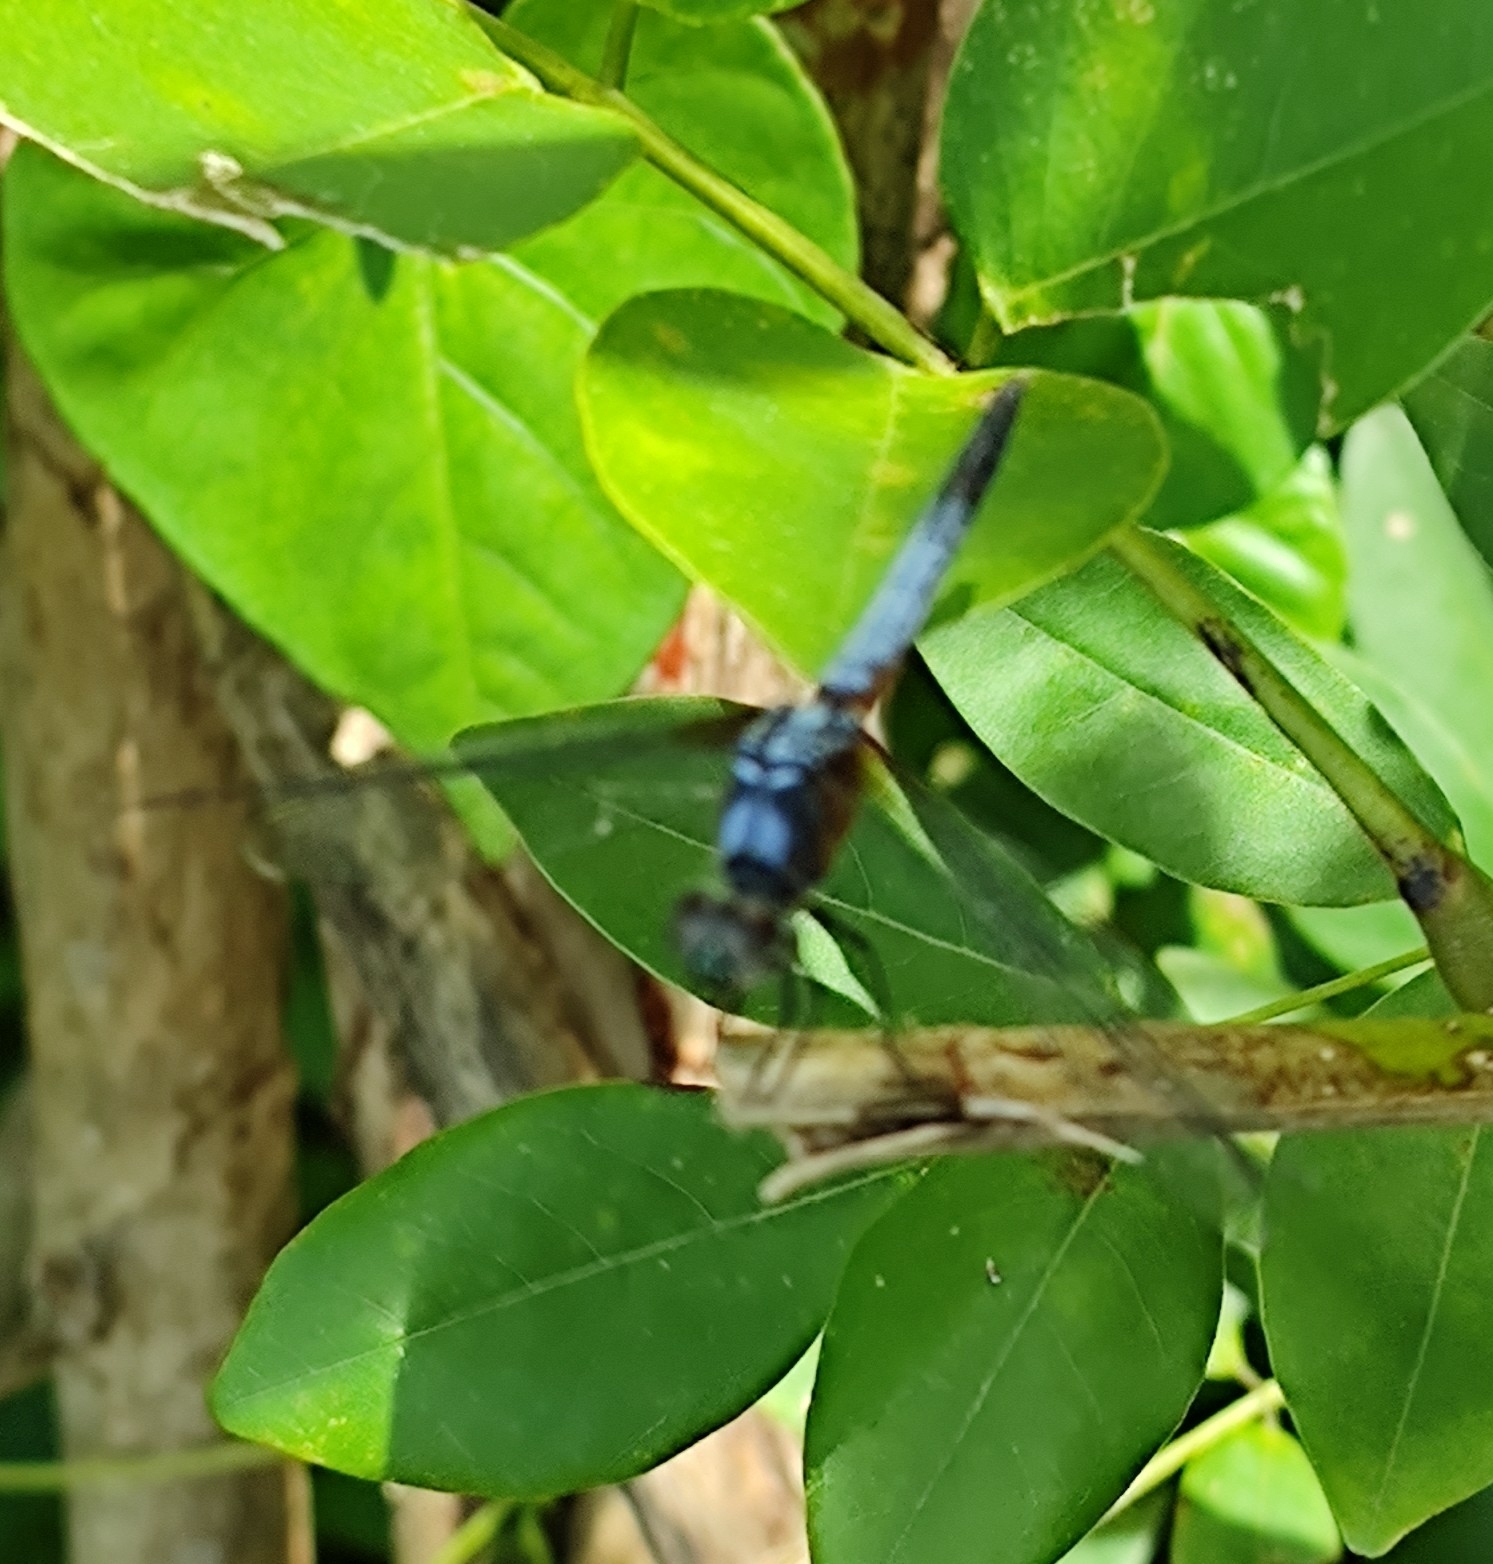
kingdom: Animalia
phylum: Arthropoda
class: Insecta
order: Odonata
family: Libellulidae
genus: Brachydiplax
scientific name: Brachydiplax chalybea
